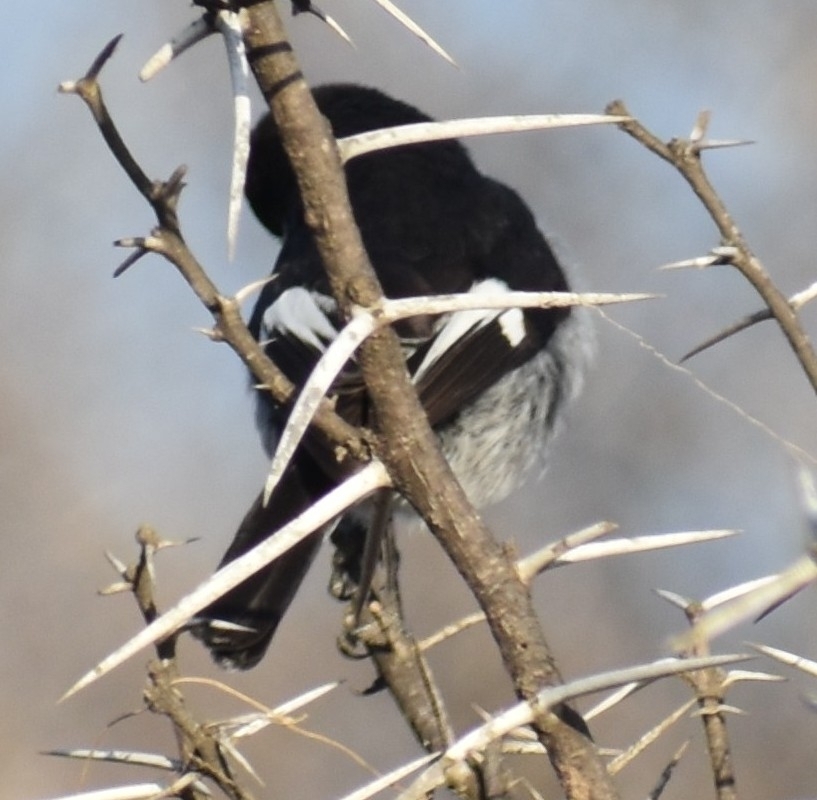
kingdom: Animalia
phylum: Chordata
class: Aves
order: Passeriformes
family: Muscicapidae
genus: Sigelus
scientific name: Sigelus silens
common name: Fiscal flycatcher
